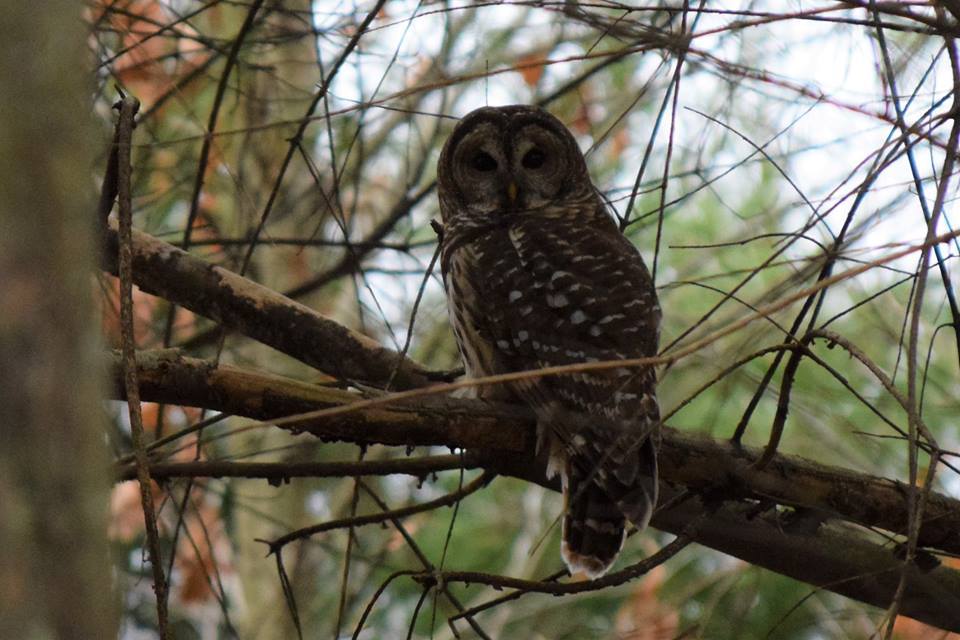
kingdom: Animalia
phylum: Chordata
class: Aves
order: Strigiformes
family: Strigidae
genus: Strix
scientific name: Strix varia
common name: Barred owl
